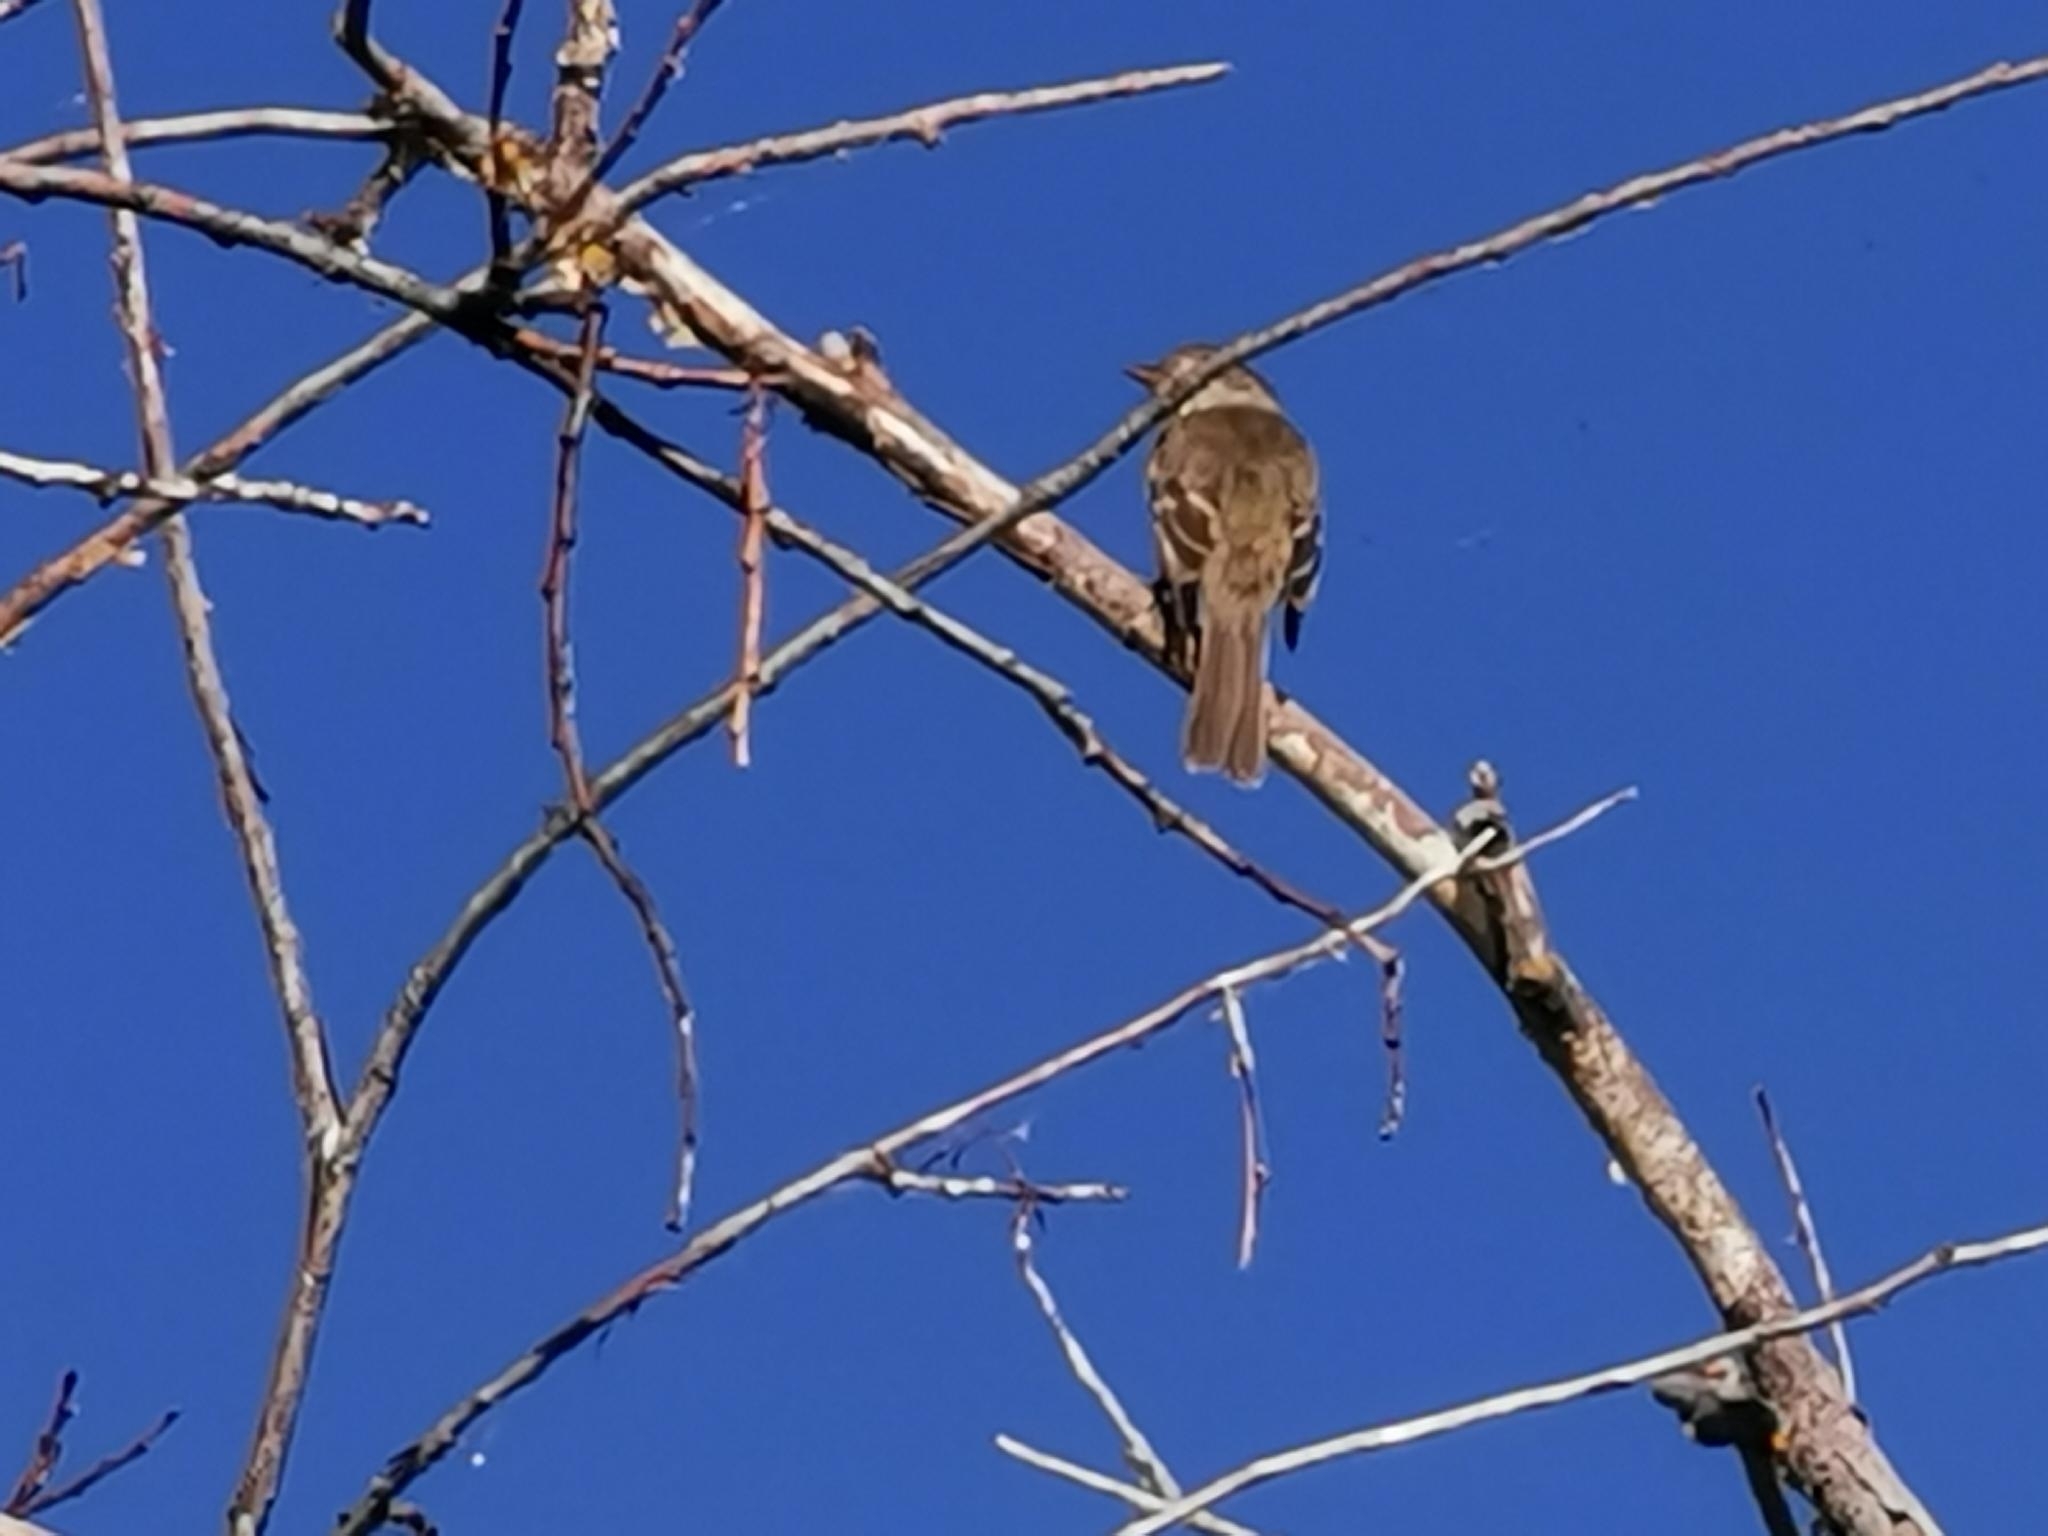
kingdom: Animalia
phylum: Chordata
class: Aves
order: Passeriformes
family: Tyrannidae
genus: Empidonax
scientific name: Empidonax traillii
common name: Willow flycatcher
